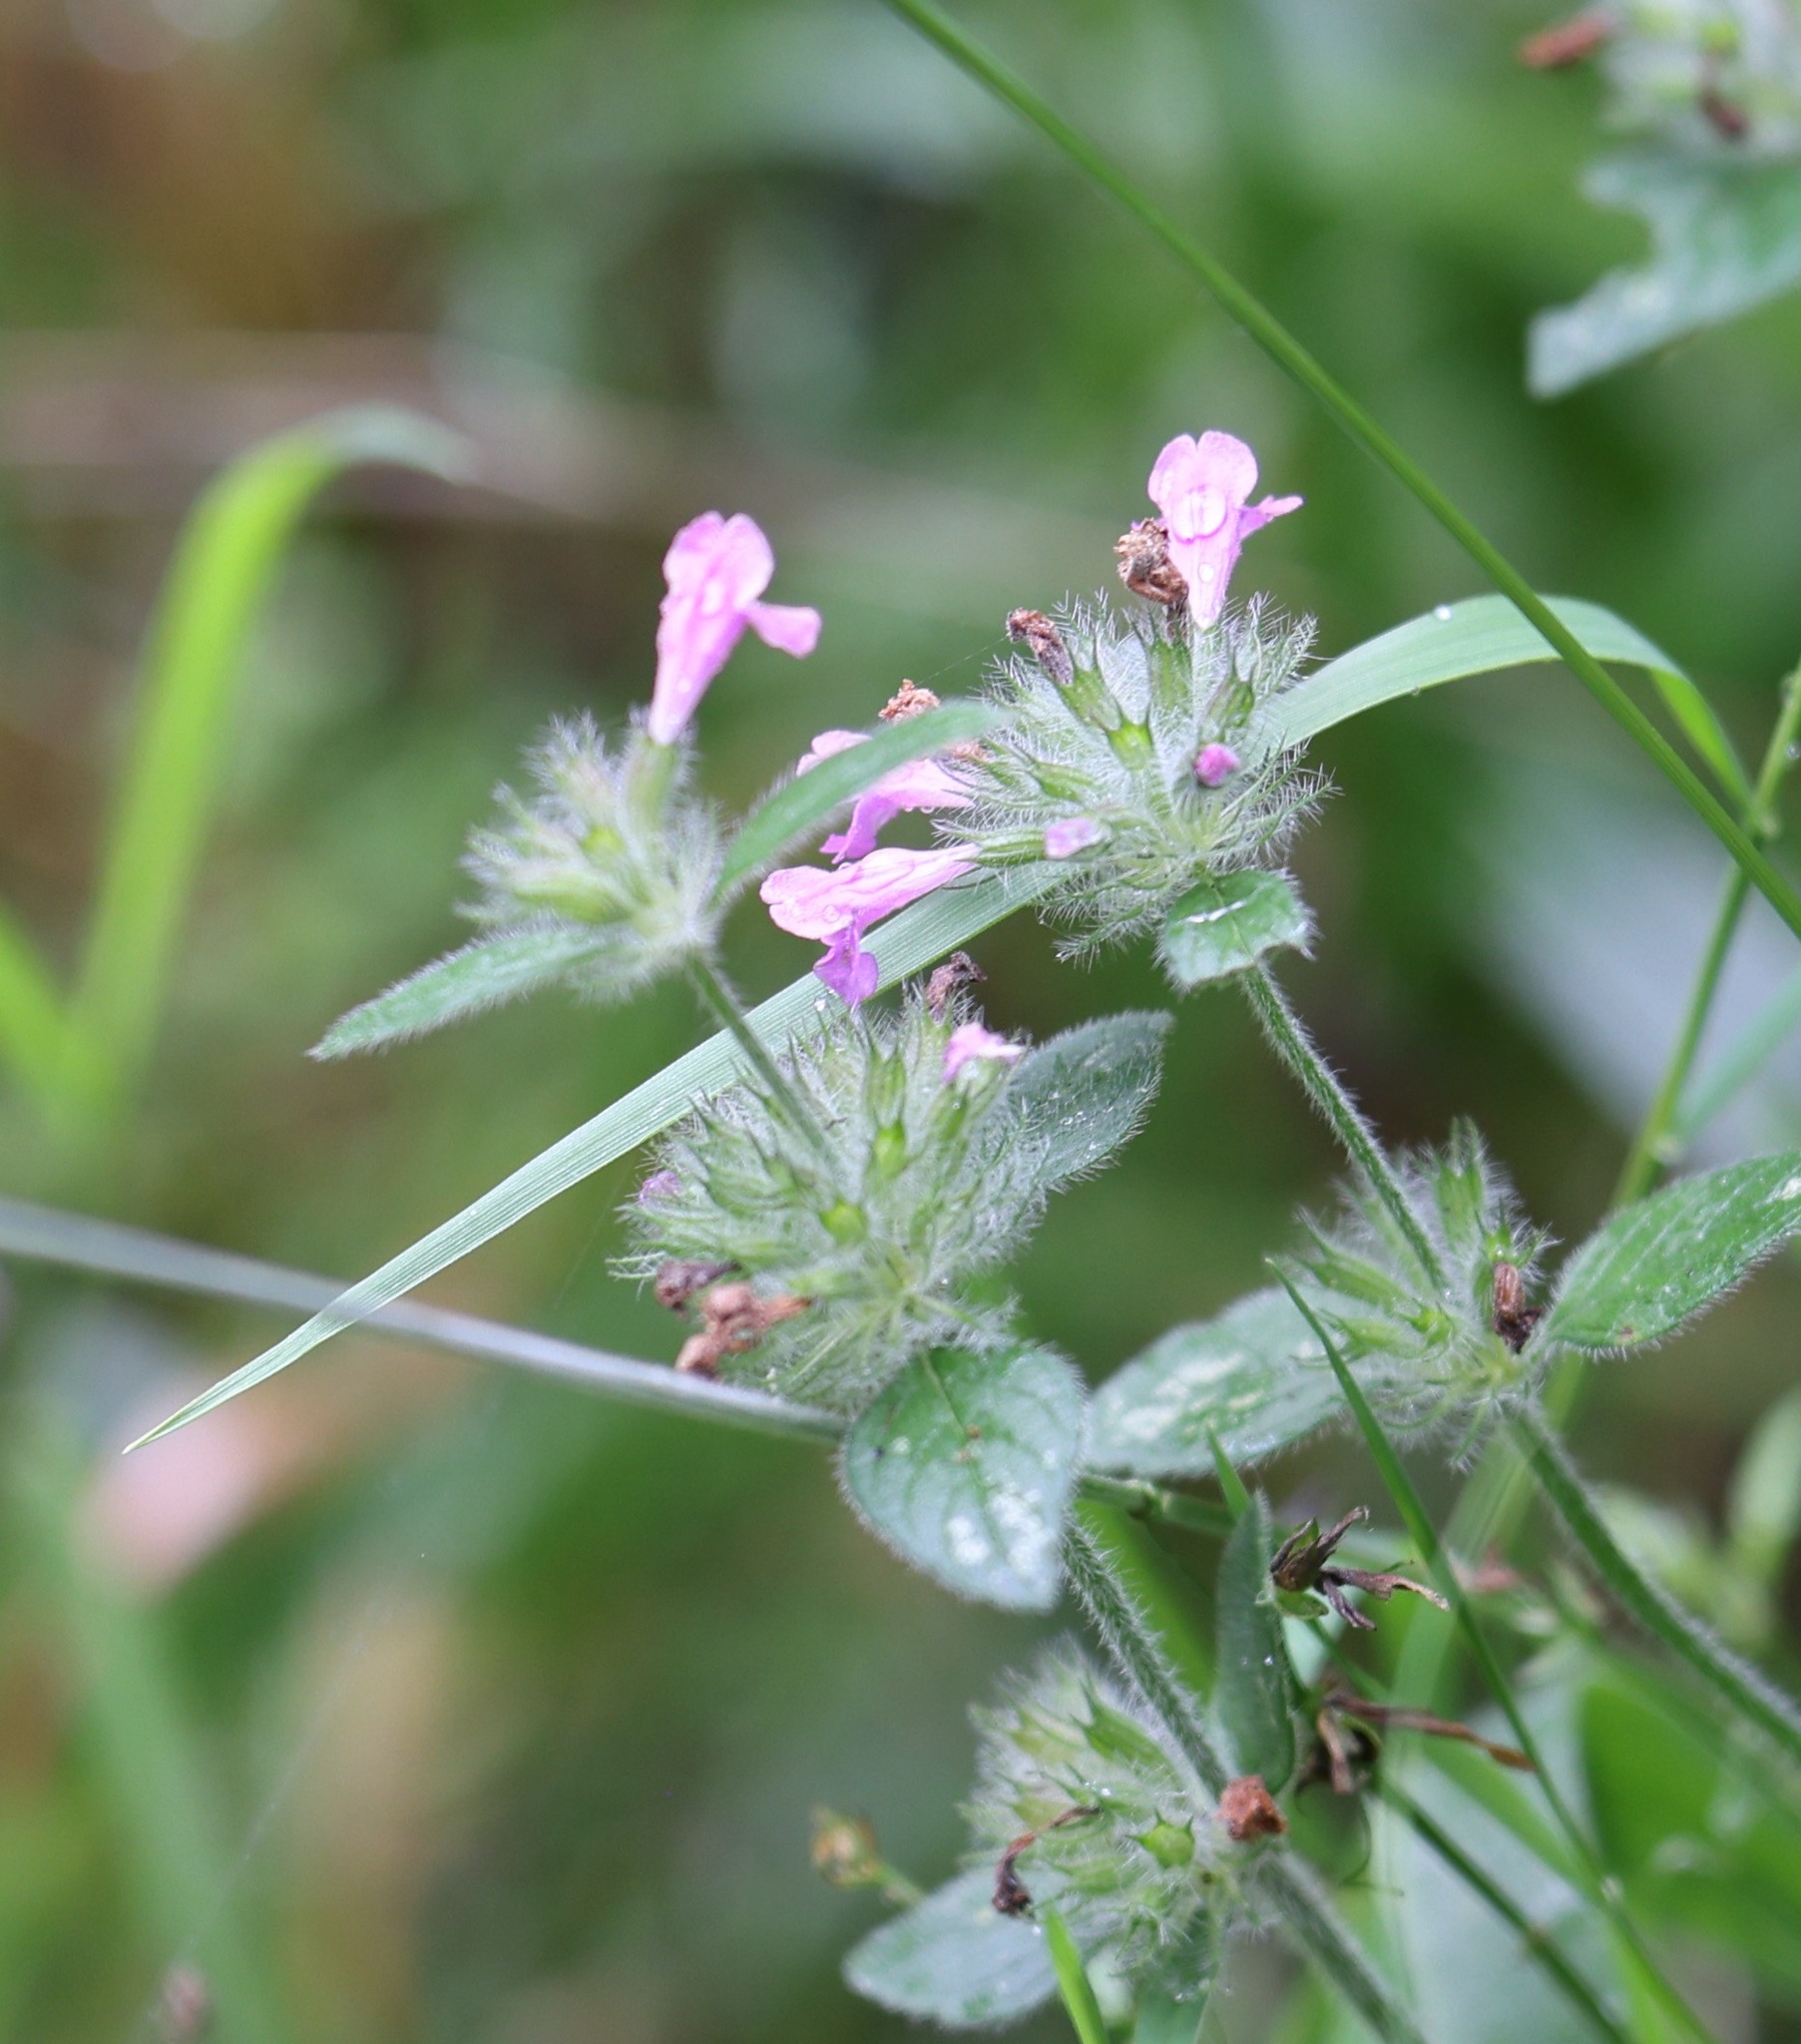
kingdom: Plantae
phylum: Tracheophyta
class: Magnoliopsida
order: Lamiales
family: Lamiaceae
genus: Clinopodium
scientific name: Clinopodium vulgare
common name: Wild basil
